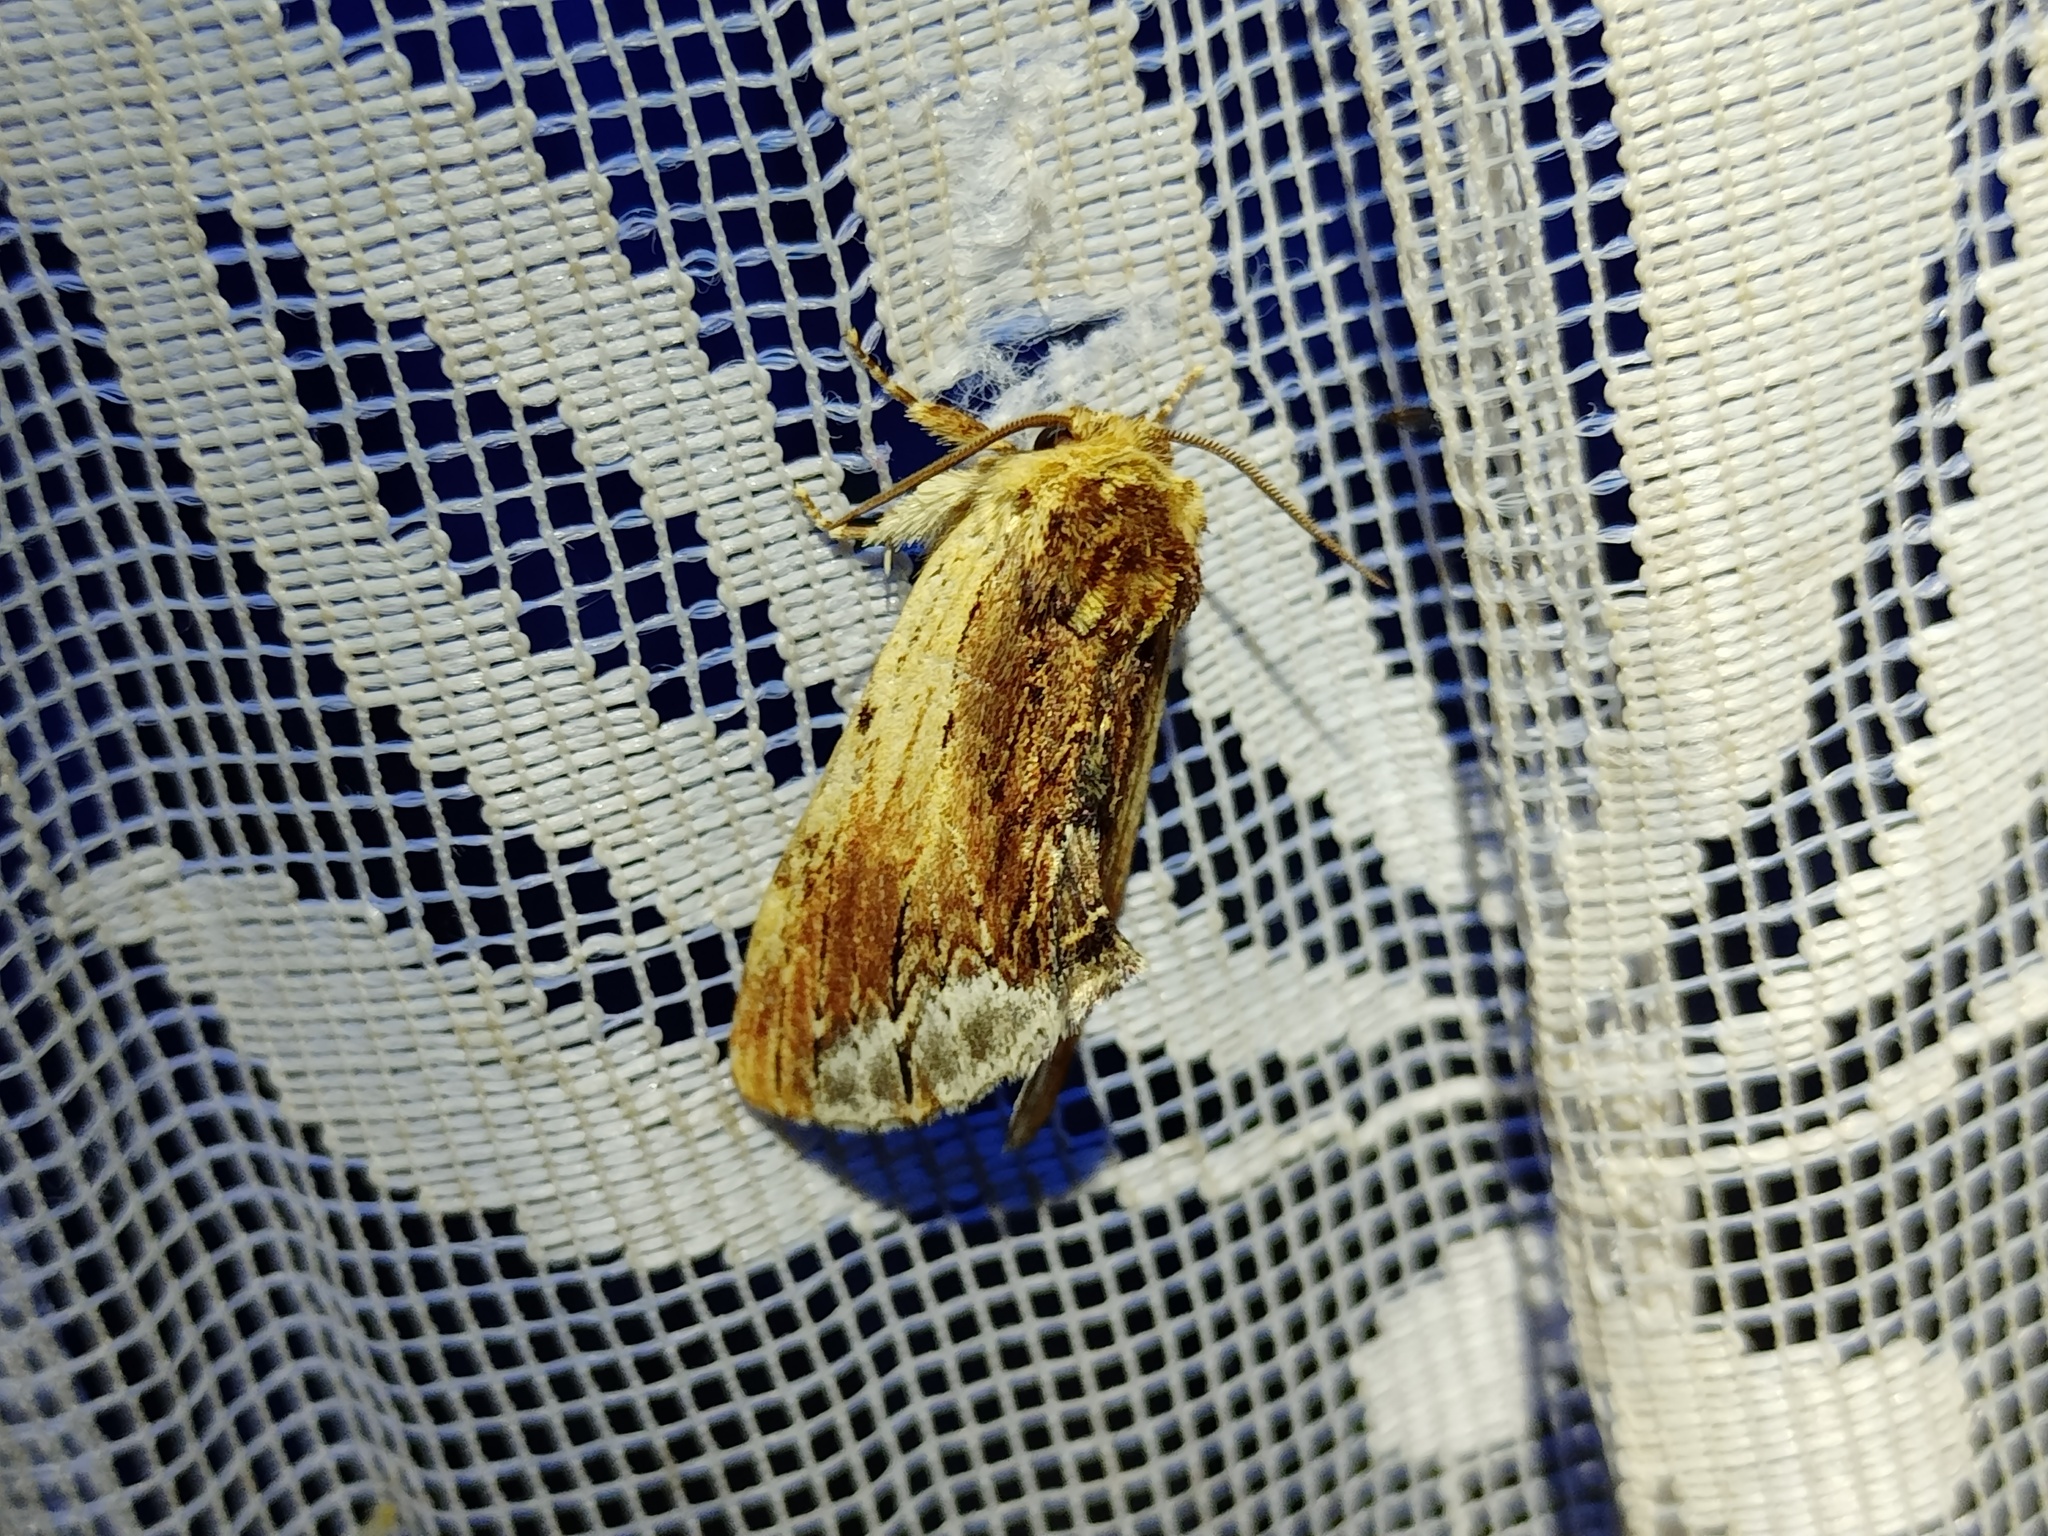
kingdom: Animalia
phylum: Arthropoda
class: Insecta
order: Lepidoptera
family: Notodontidae
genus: Ptilodon
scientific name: Ptilodon cucullina
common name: Maple prominent
